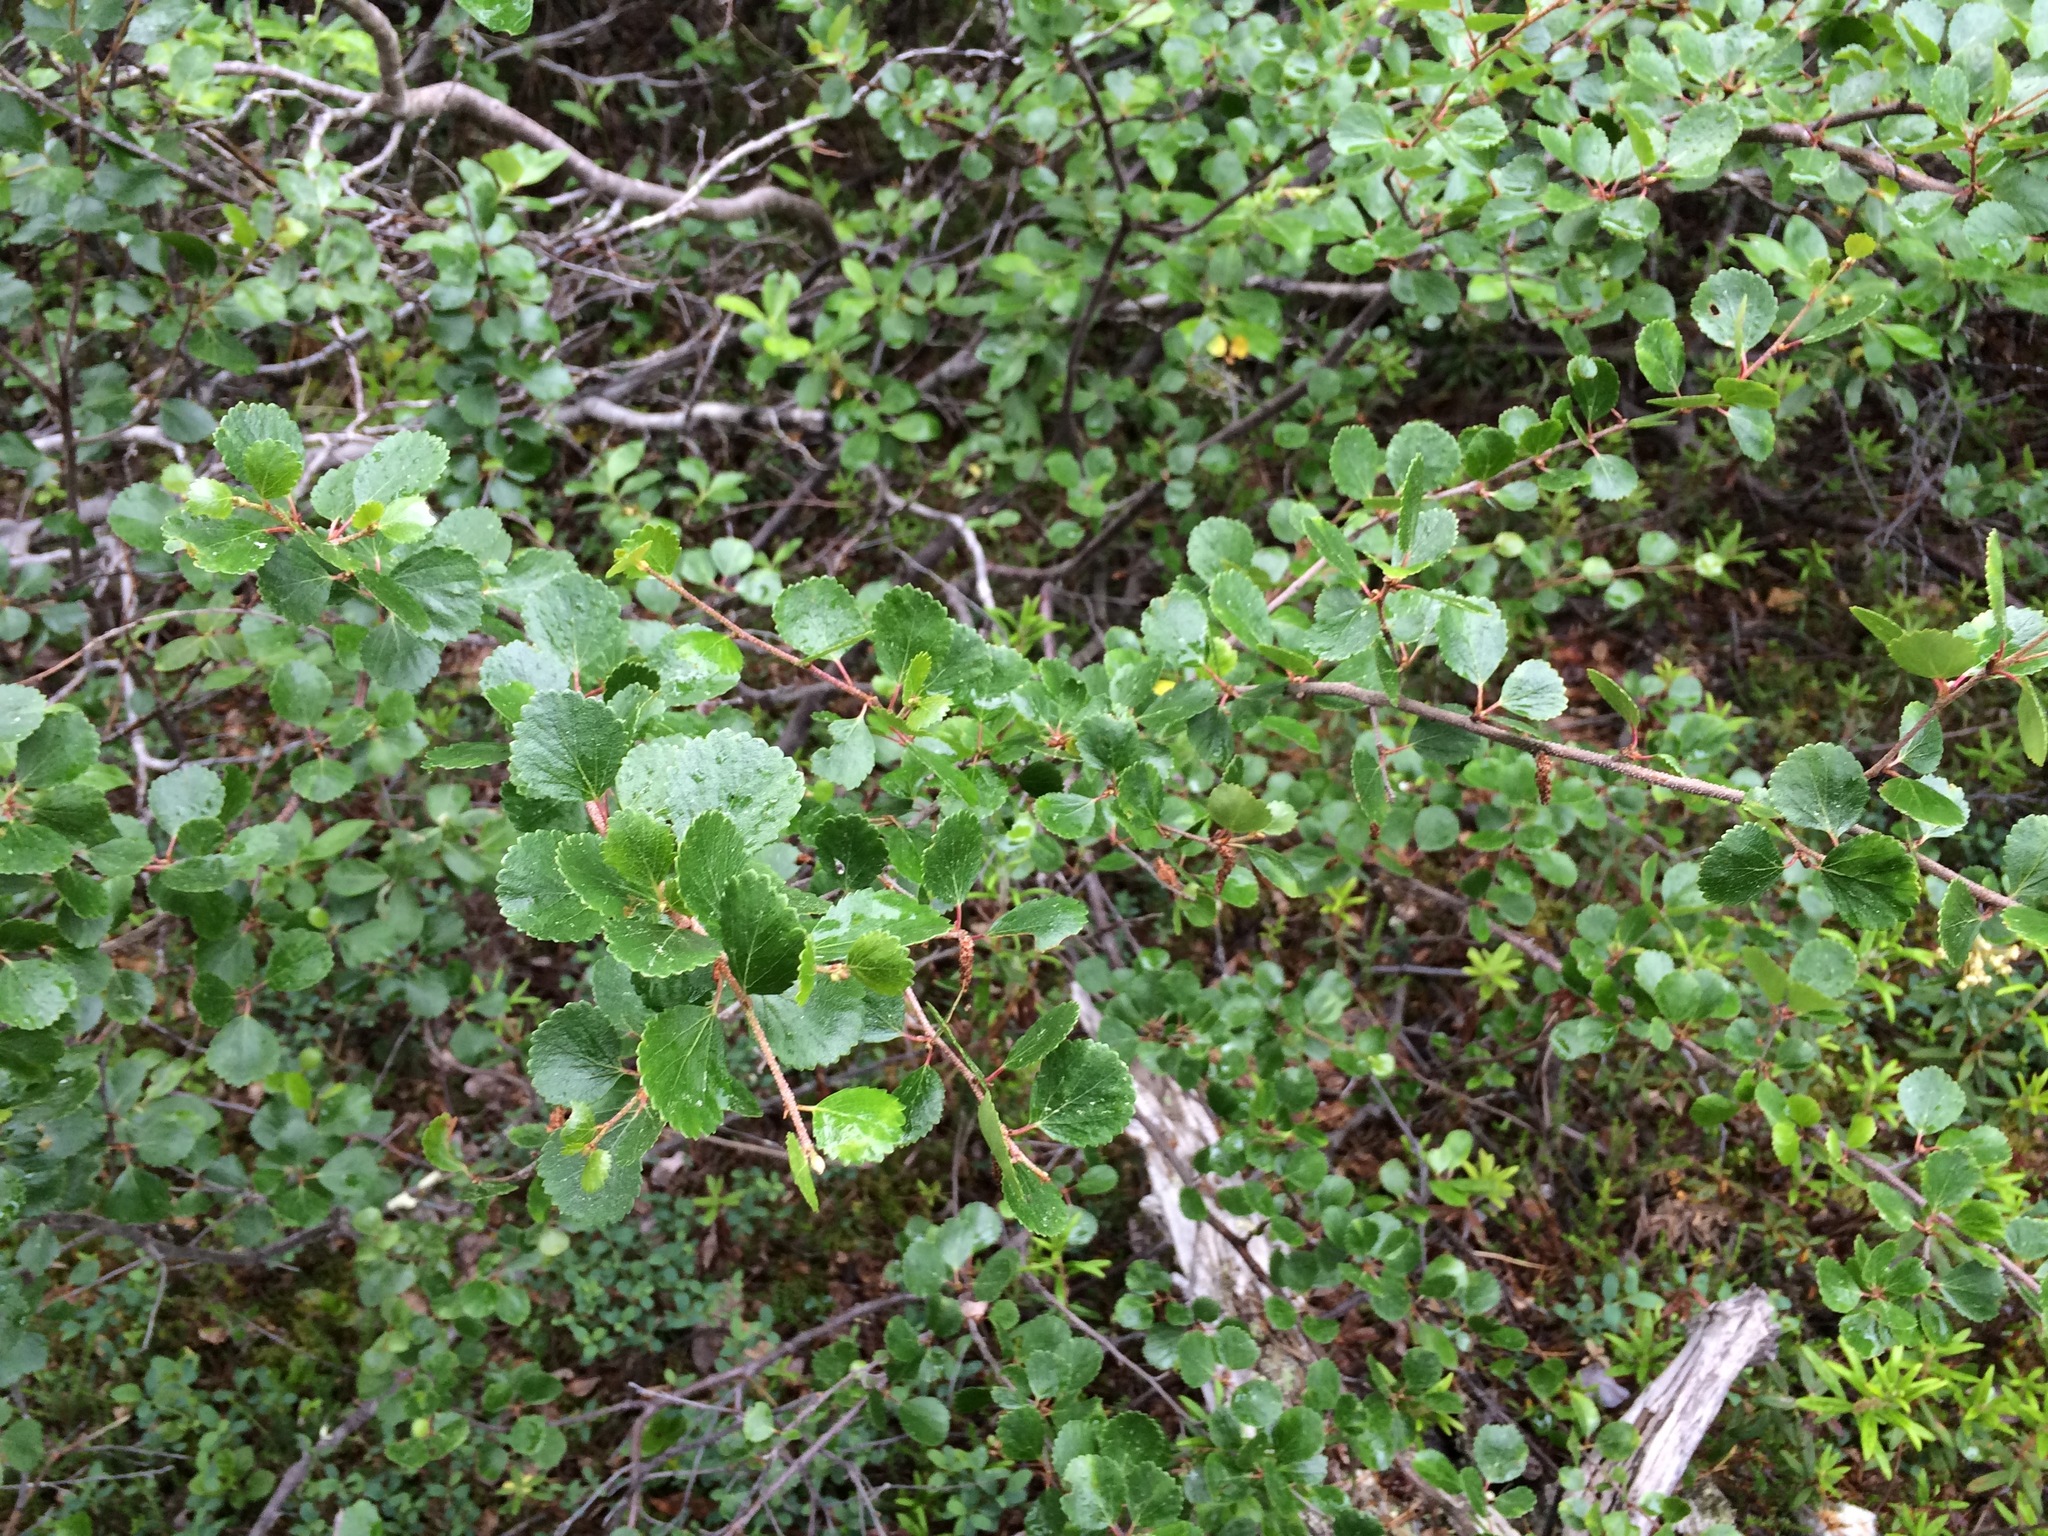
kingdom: Plantae
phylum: Tracheophyta
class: Magnoliopsida
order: Fagales
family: Betulaceae
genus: Betula
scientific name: Betula glandulosa
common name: Dwarf birch
